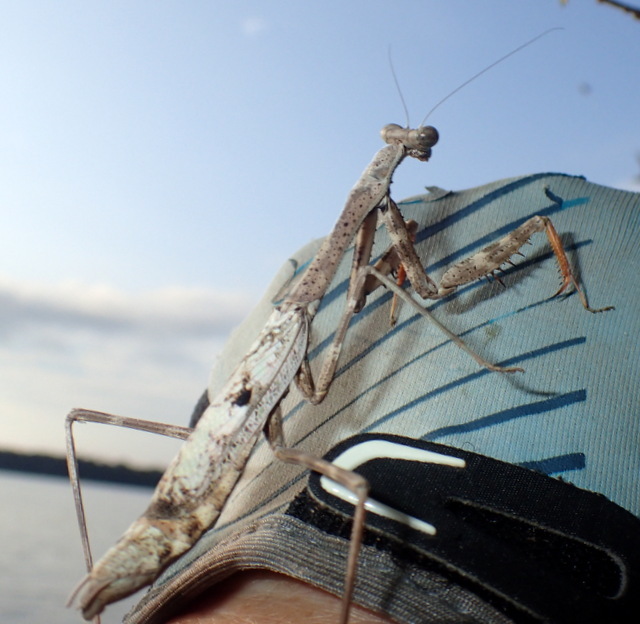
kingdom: Animalia
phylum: Arthropoda
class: Insecta
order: Mantodea
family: Mantidae
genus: Stagmomantis
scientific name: Stagmomantis carolina
